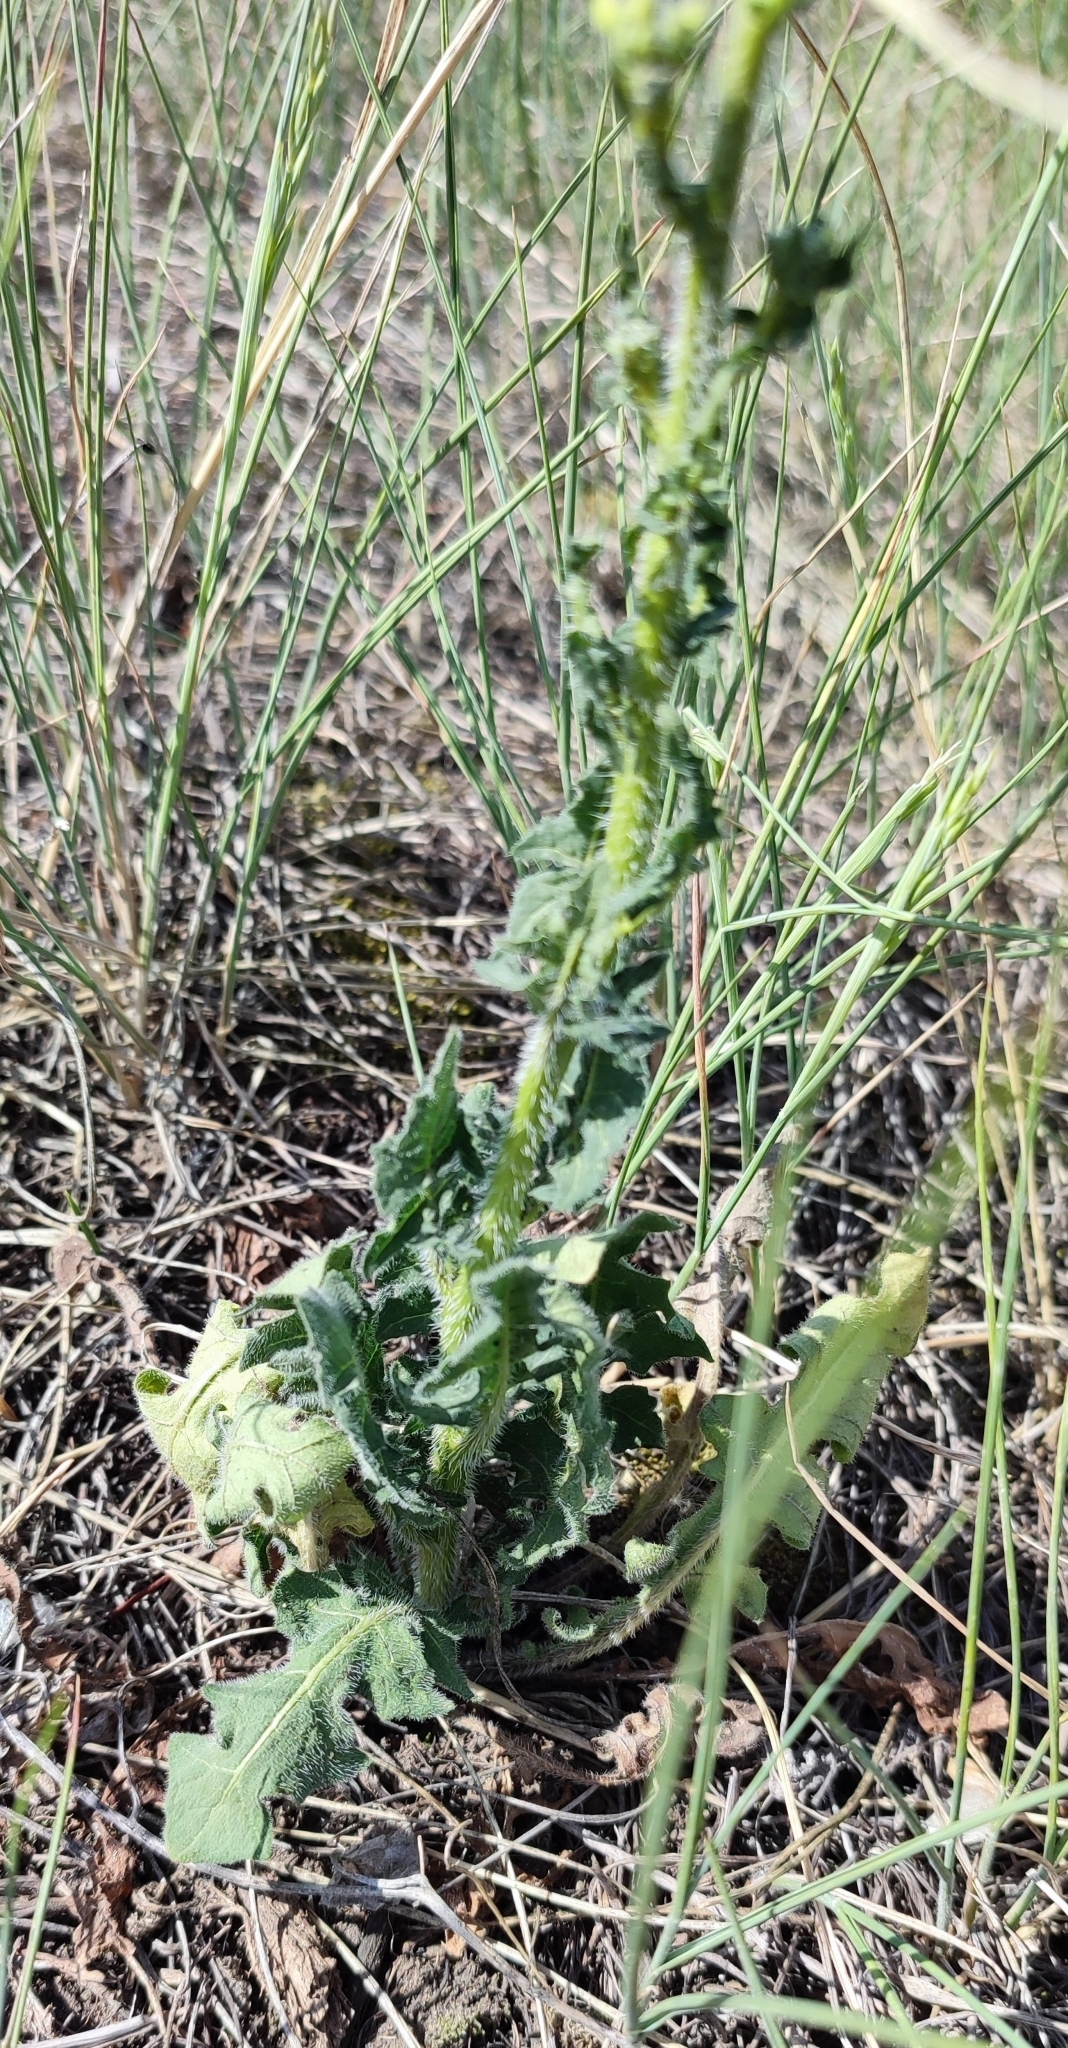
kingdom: Plantae
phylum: Tracheophyta
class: Magnoliopsida
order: Brassicales
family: Brassicaceae
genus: Sisymbrium
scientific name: Sisymbrium loeselii
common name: False london-rocket
